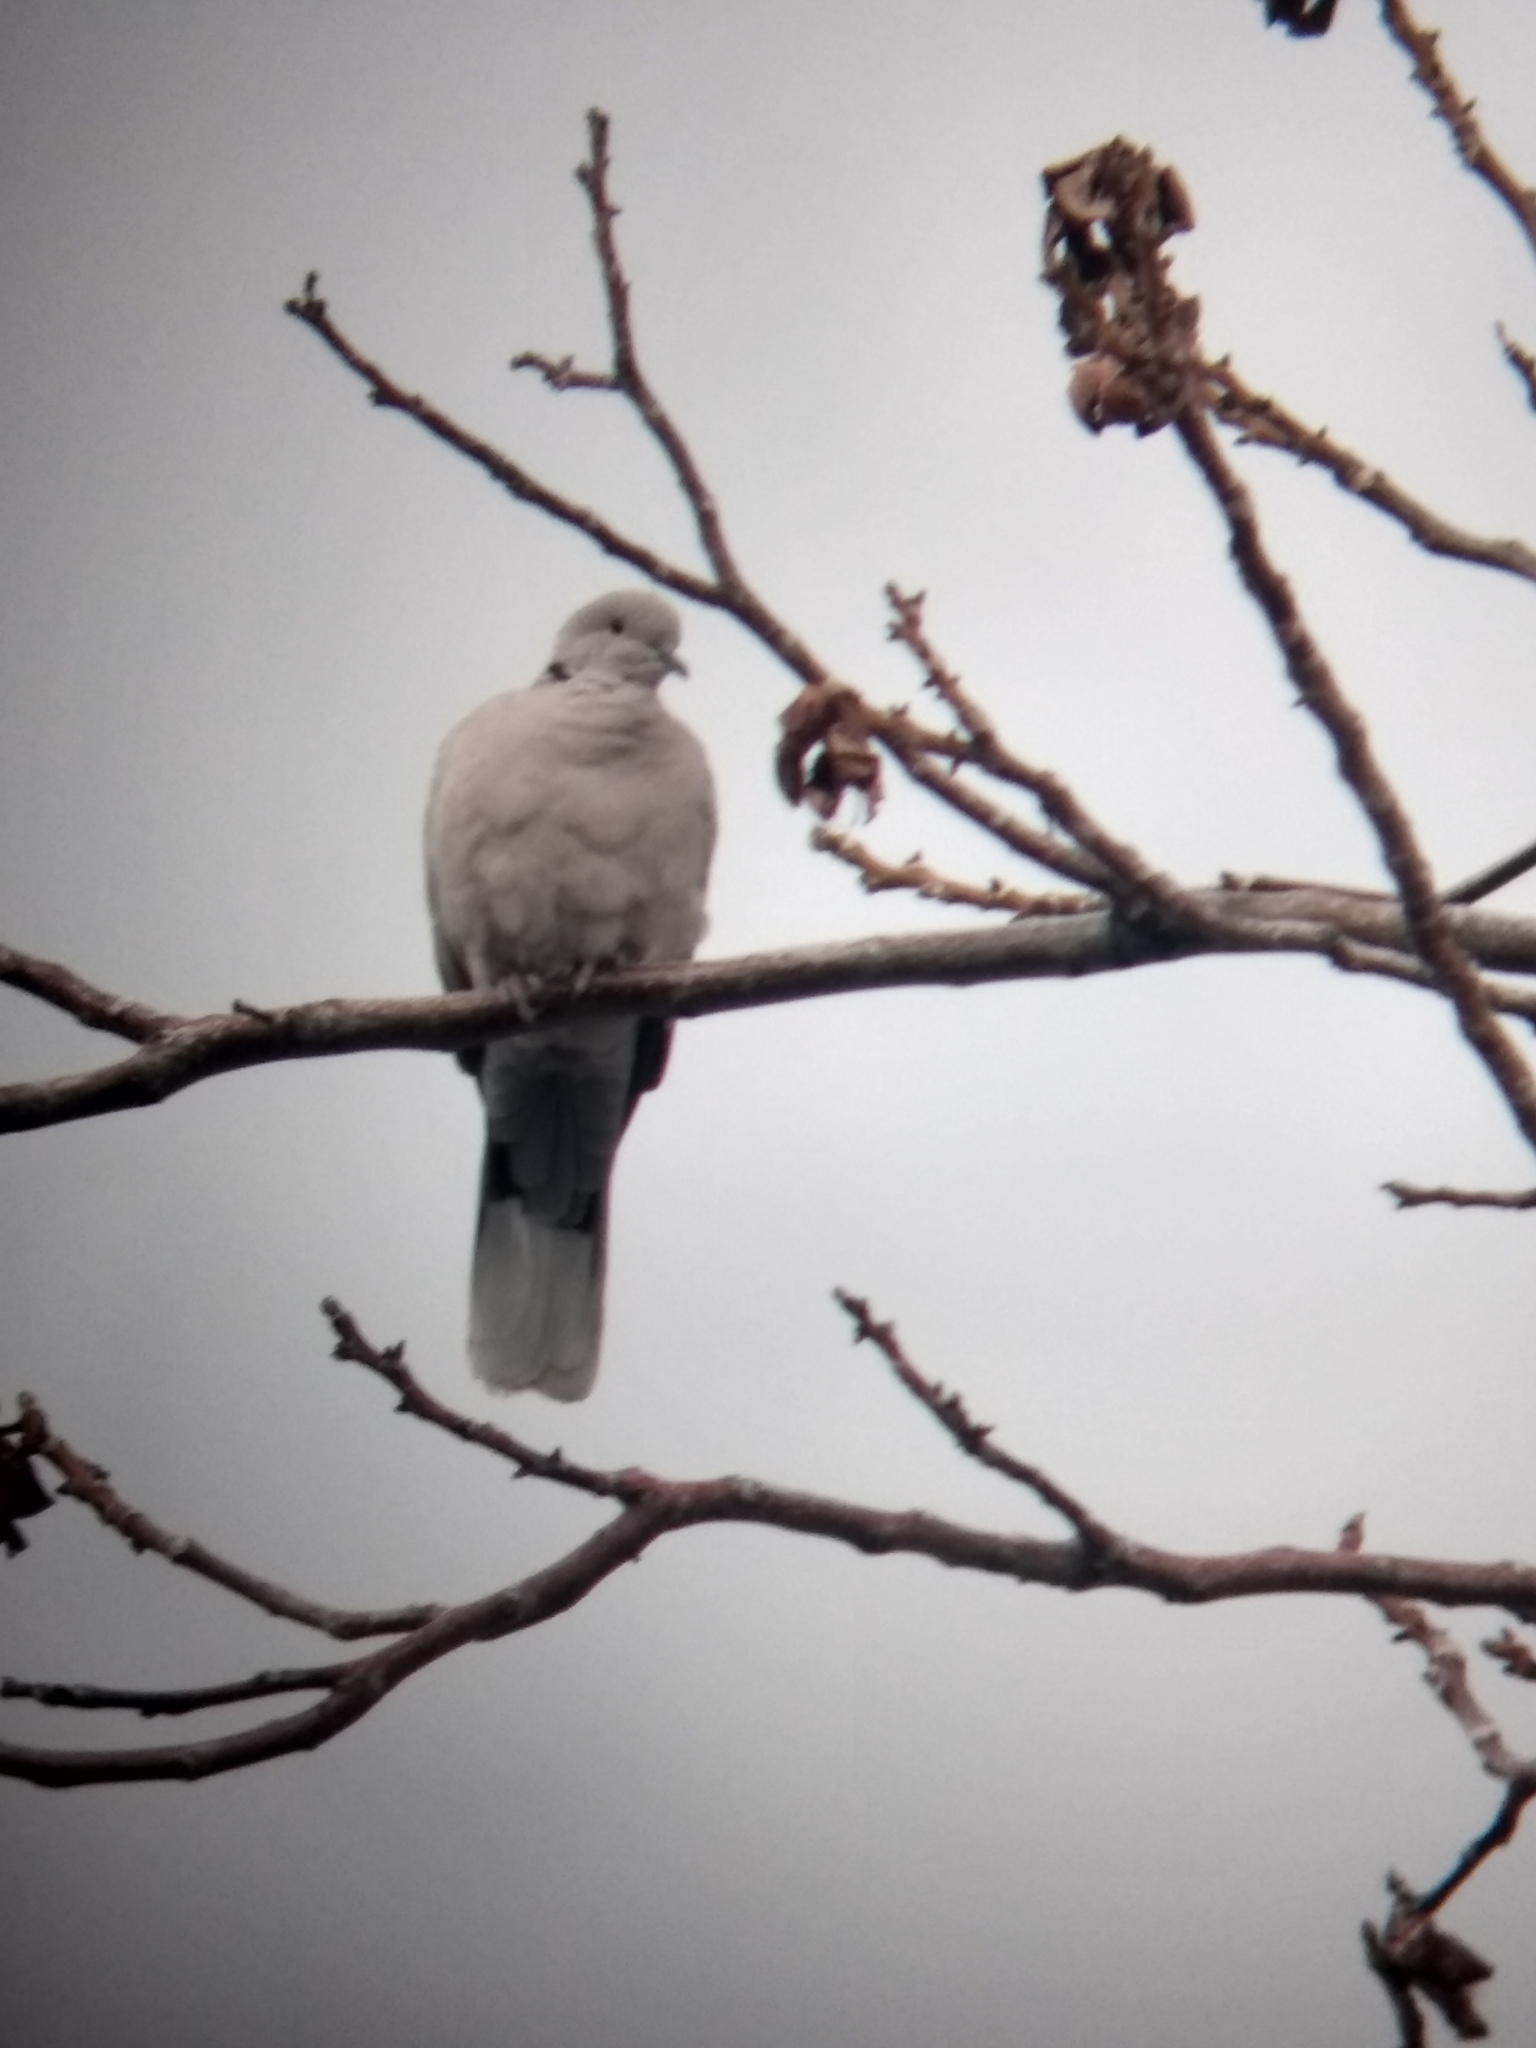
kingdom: Animalia
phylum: Chordata
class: Aves
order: Columbiformes
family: Columbidae
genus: Streptopelia
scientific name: Streptopelia decaocto
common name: Eurasian collared dove
